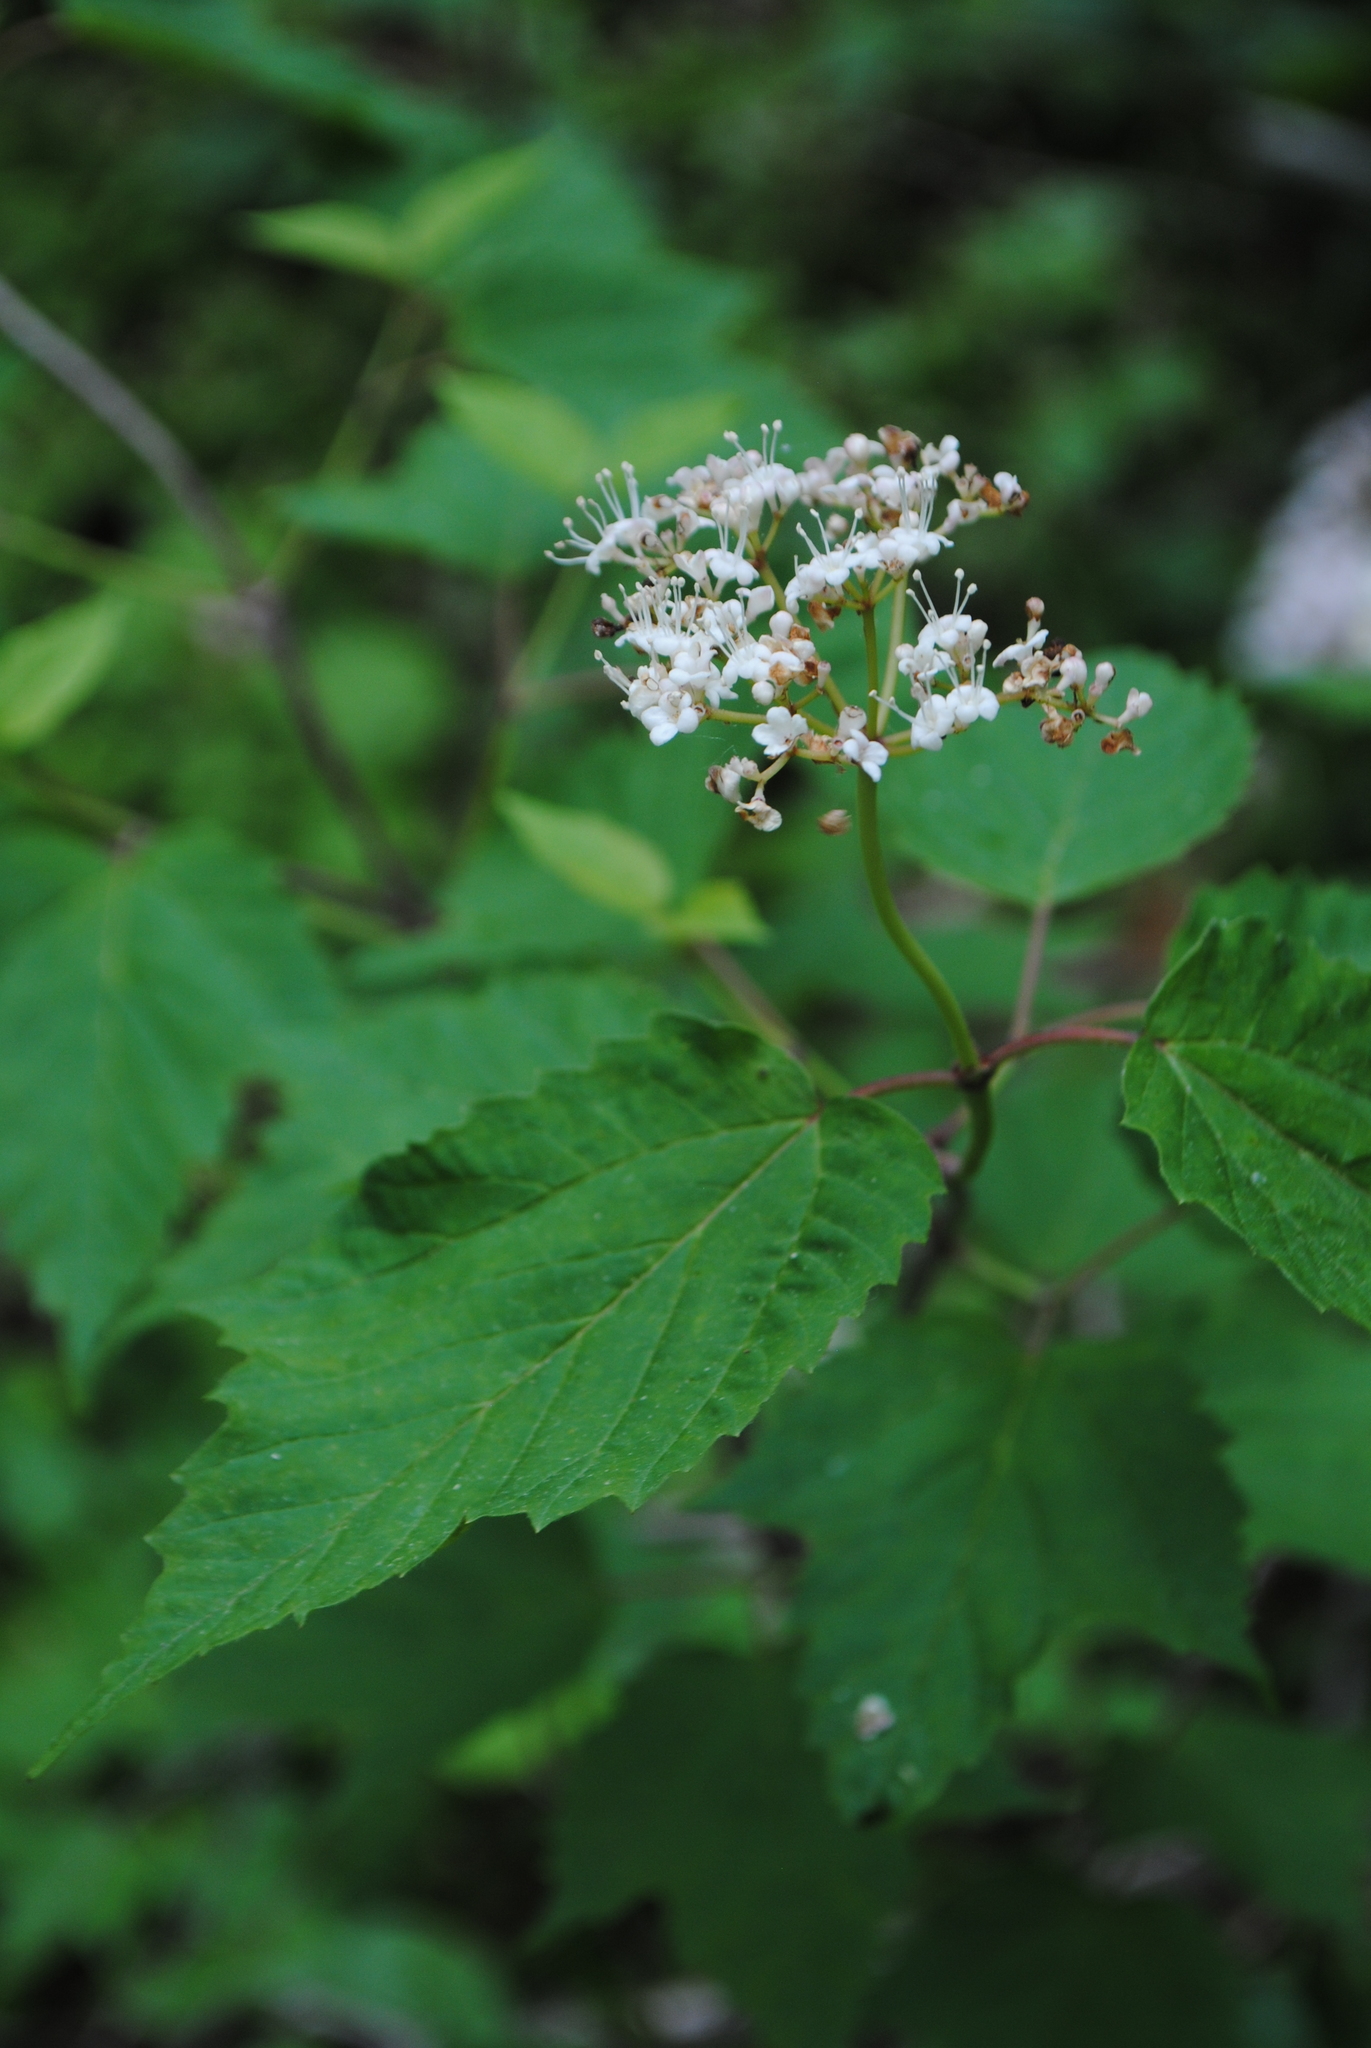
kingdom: Plantae
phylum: Tracheophyta
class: Magnoliopsida
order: Dipsacales
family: Viburnaceae
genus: Viburnum
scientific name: Viburnum acerifolium
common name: Dockmackie
